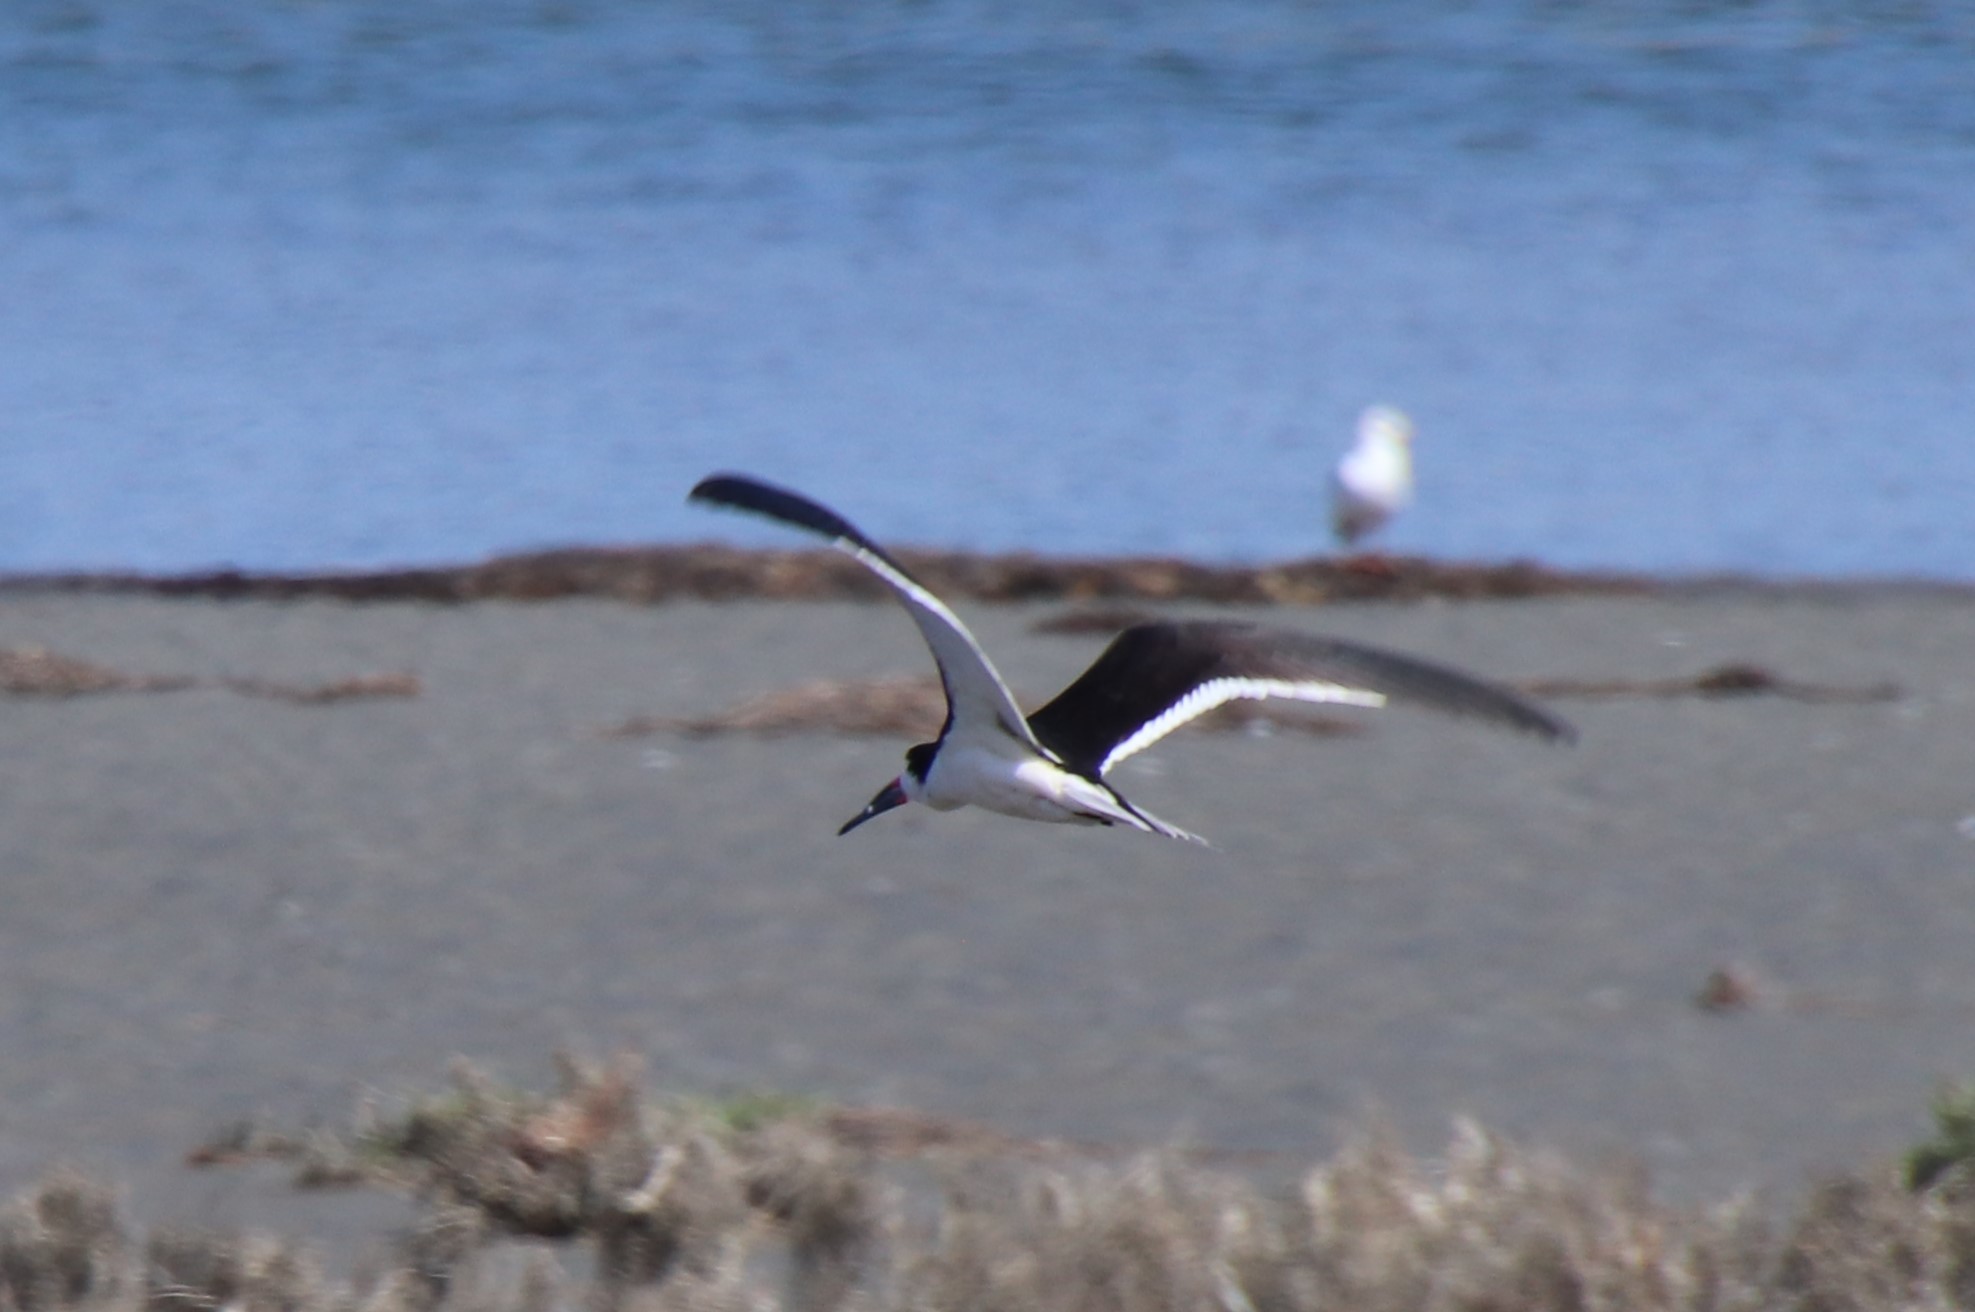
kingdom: Animalia
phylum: Chordata
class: Aves
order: Charadriiformes
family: Laridae
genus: Rynchops
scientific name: Rynchops niger
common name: Black skimmer
